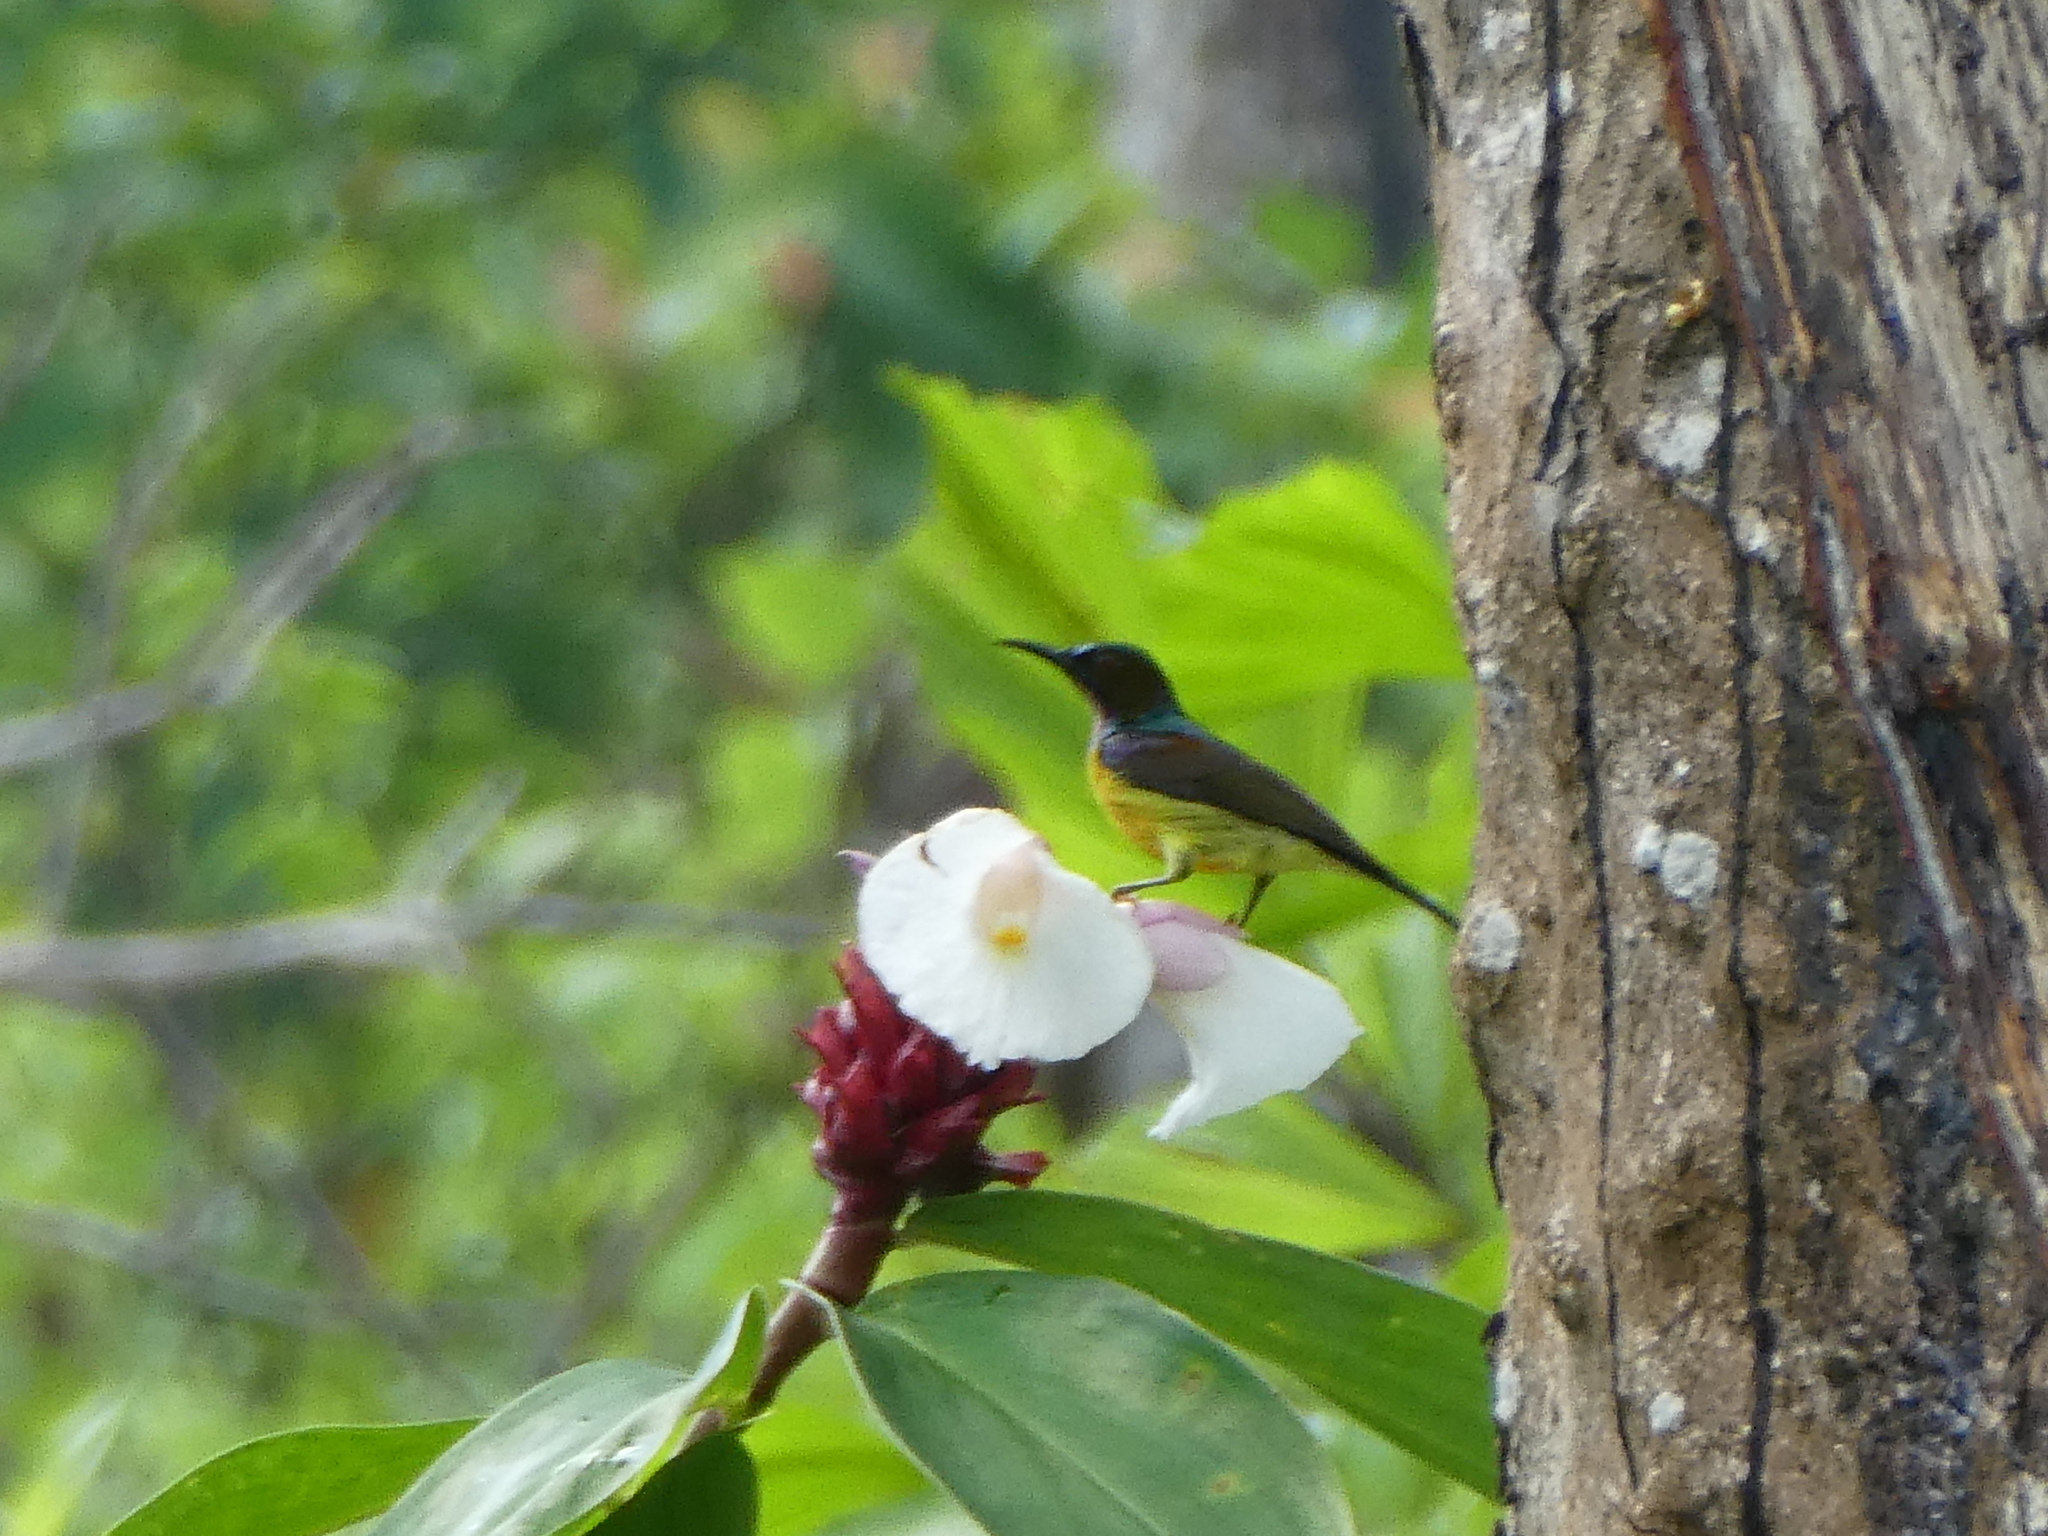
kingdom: Animalia
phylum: Chordata
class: Aves
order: Passeriformes
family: Nectariniidae
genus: Anthreptes
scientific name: Anthreptes malacensis
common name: Brown-throated sunbird
